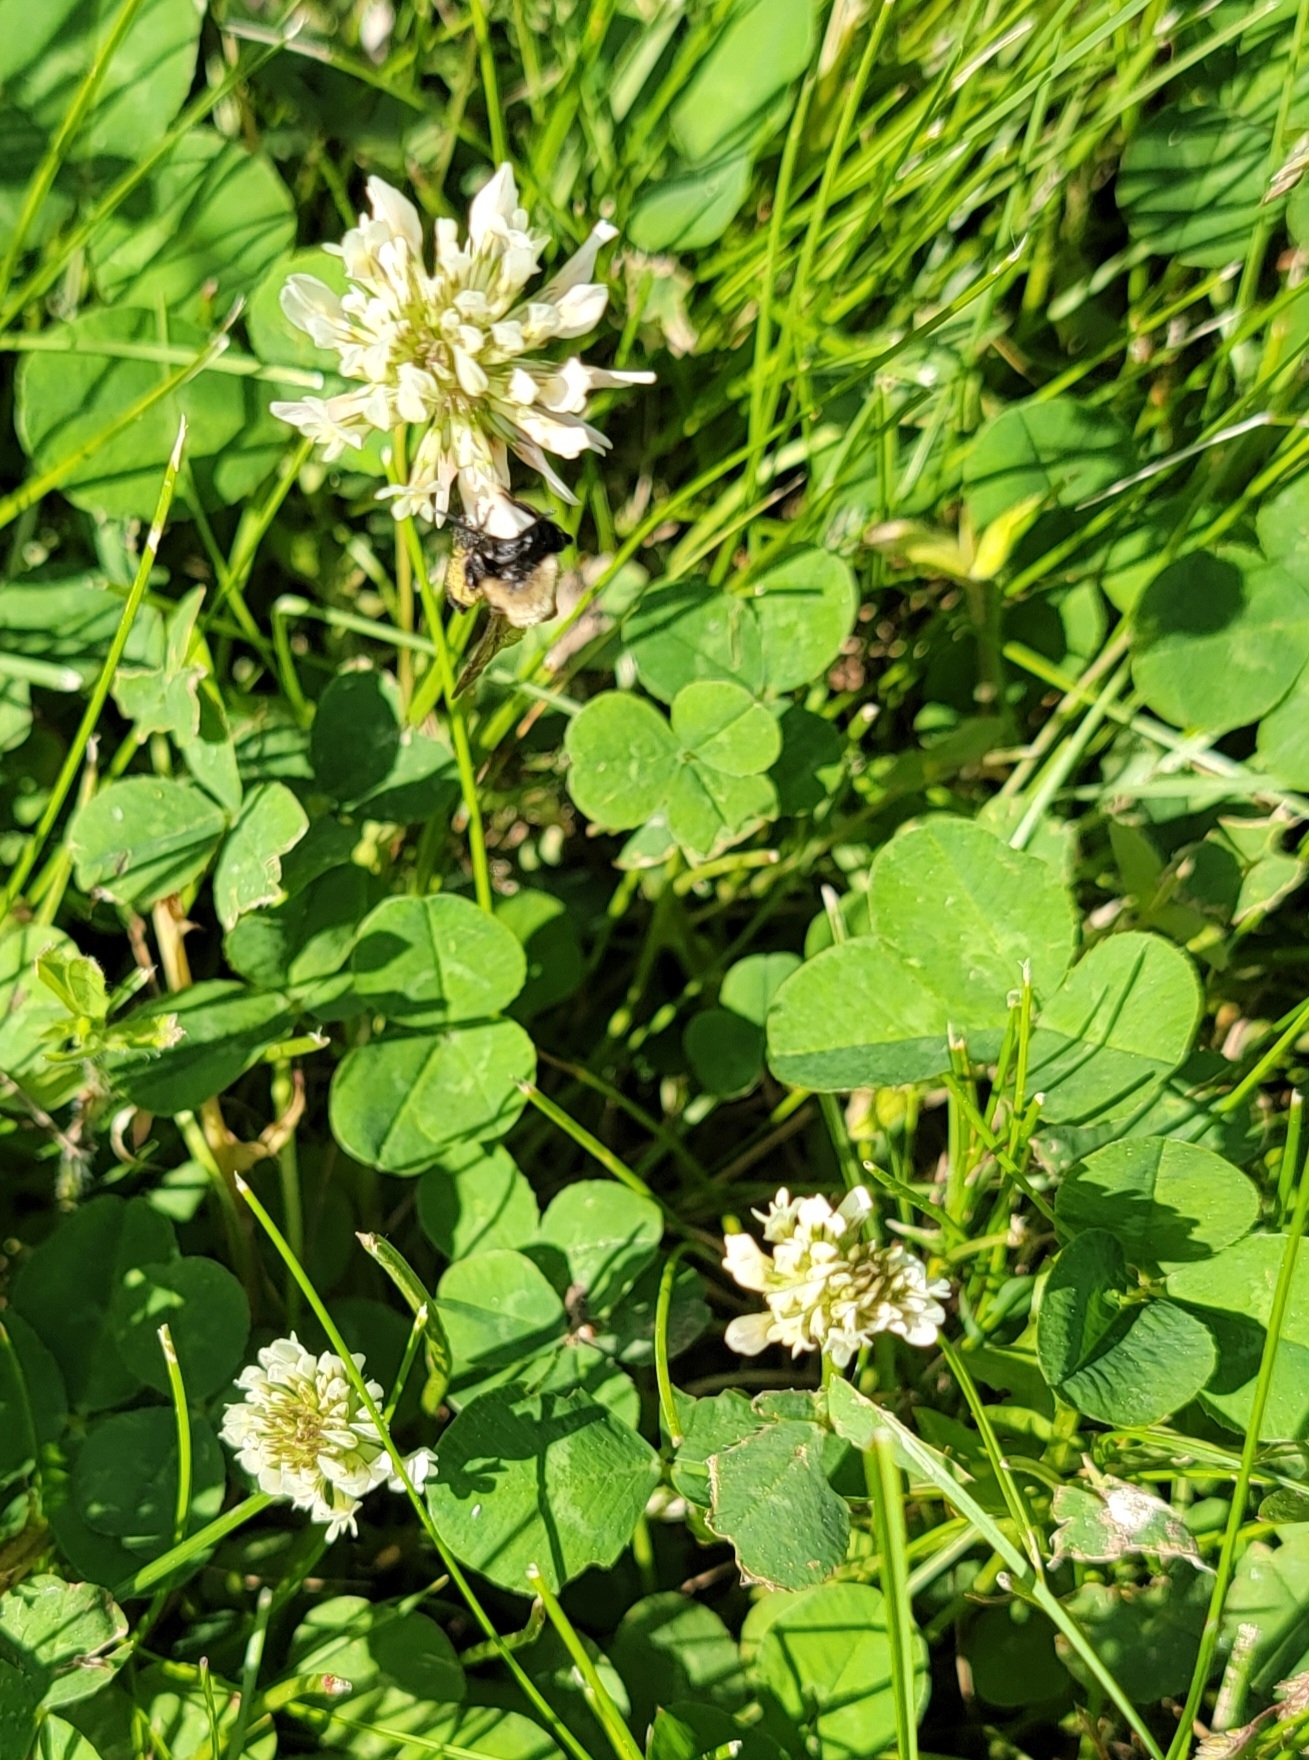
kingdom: Plantae
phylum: Tracheophyta
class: Magnoliopsida
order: Fabales
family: Fabaceae
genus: Trifolium
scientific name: Trifolium repens
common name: White clover
